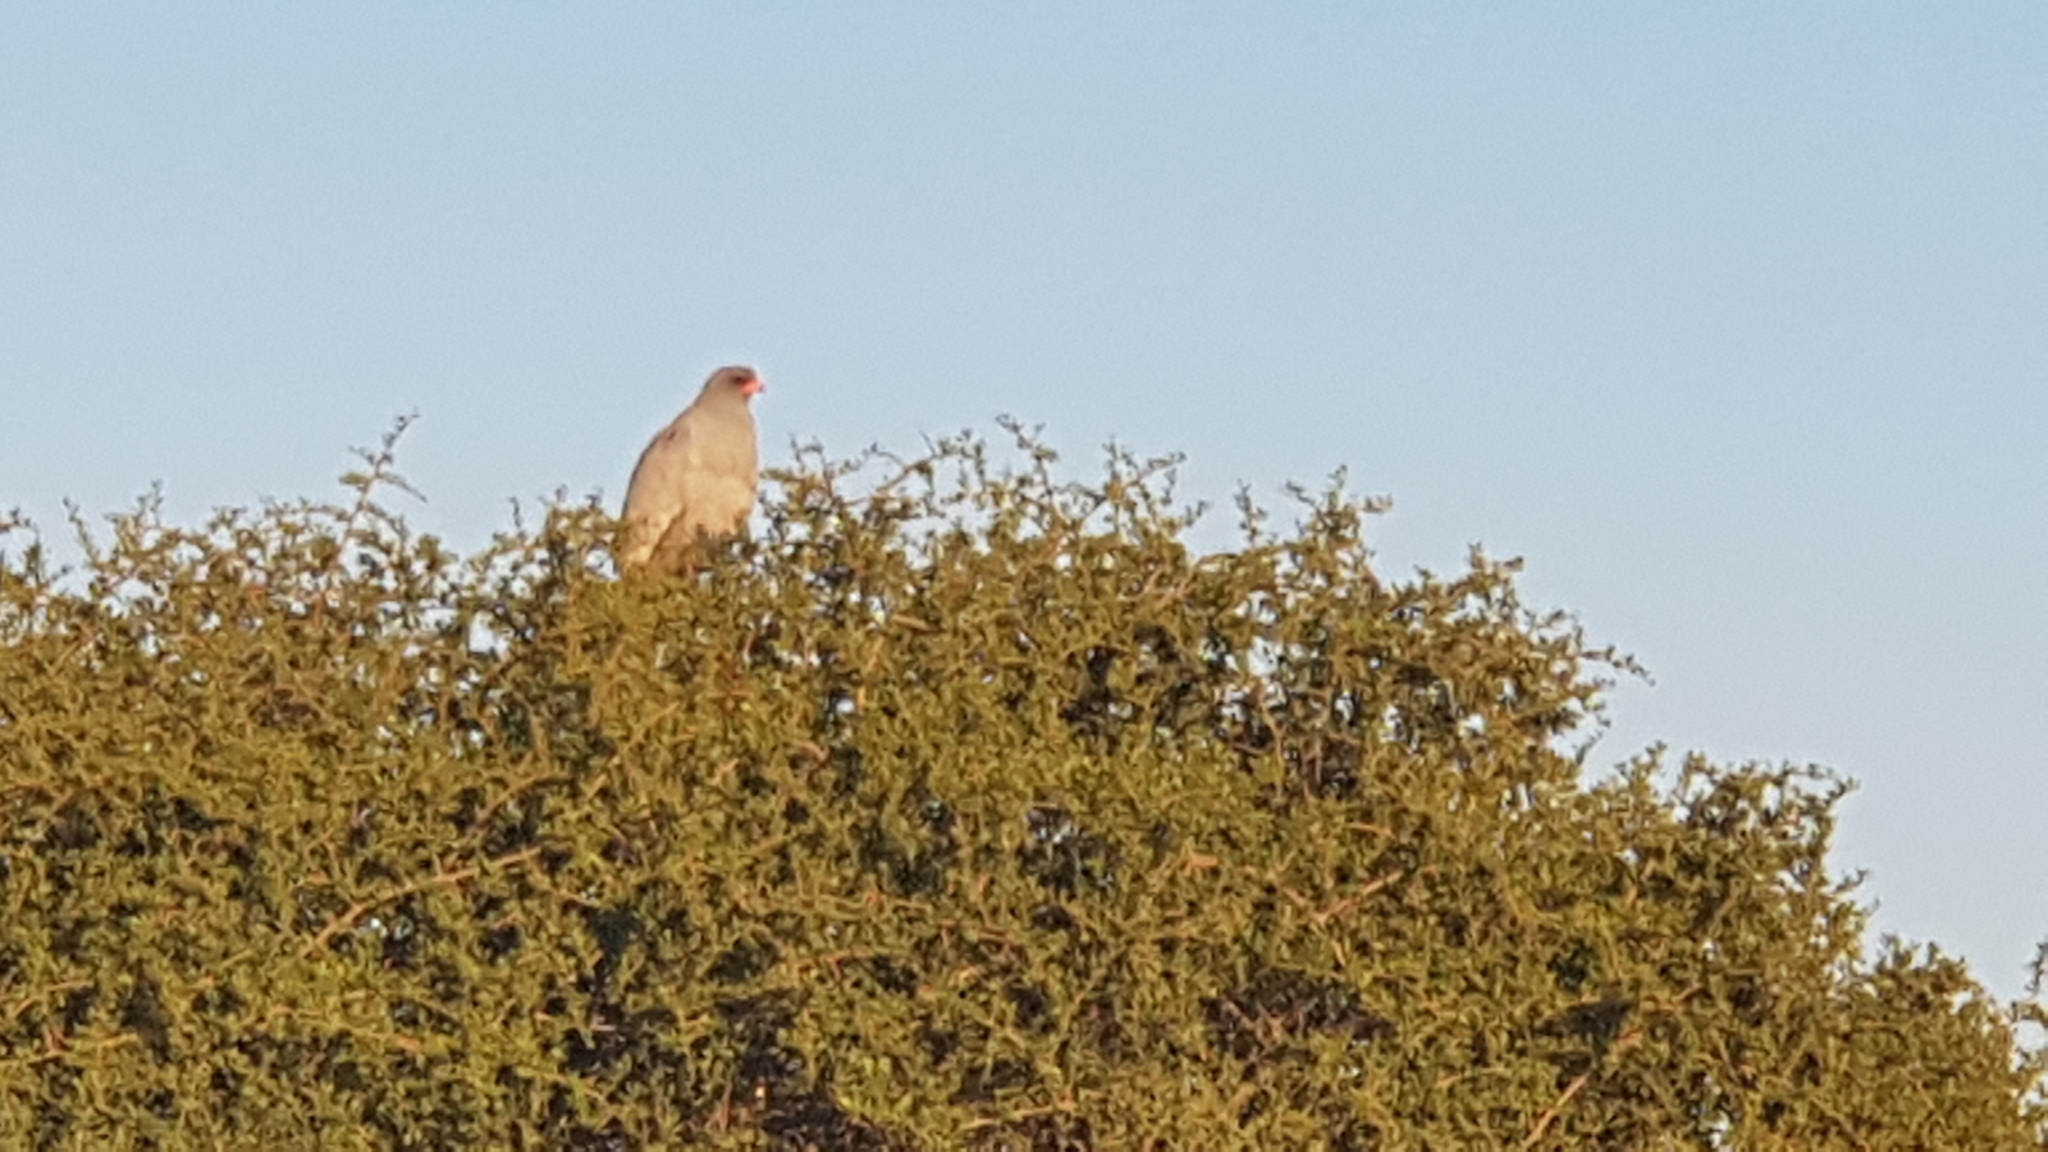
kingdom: Animalia
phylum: Chordata
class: Aves
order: Accipitriformes
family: Accipitridae
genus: Melierax
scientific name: Melierax metabates
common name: Dark chanting-goshawk
